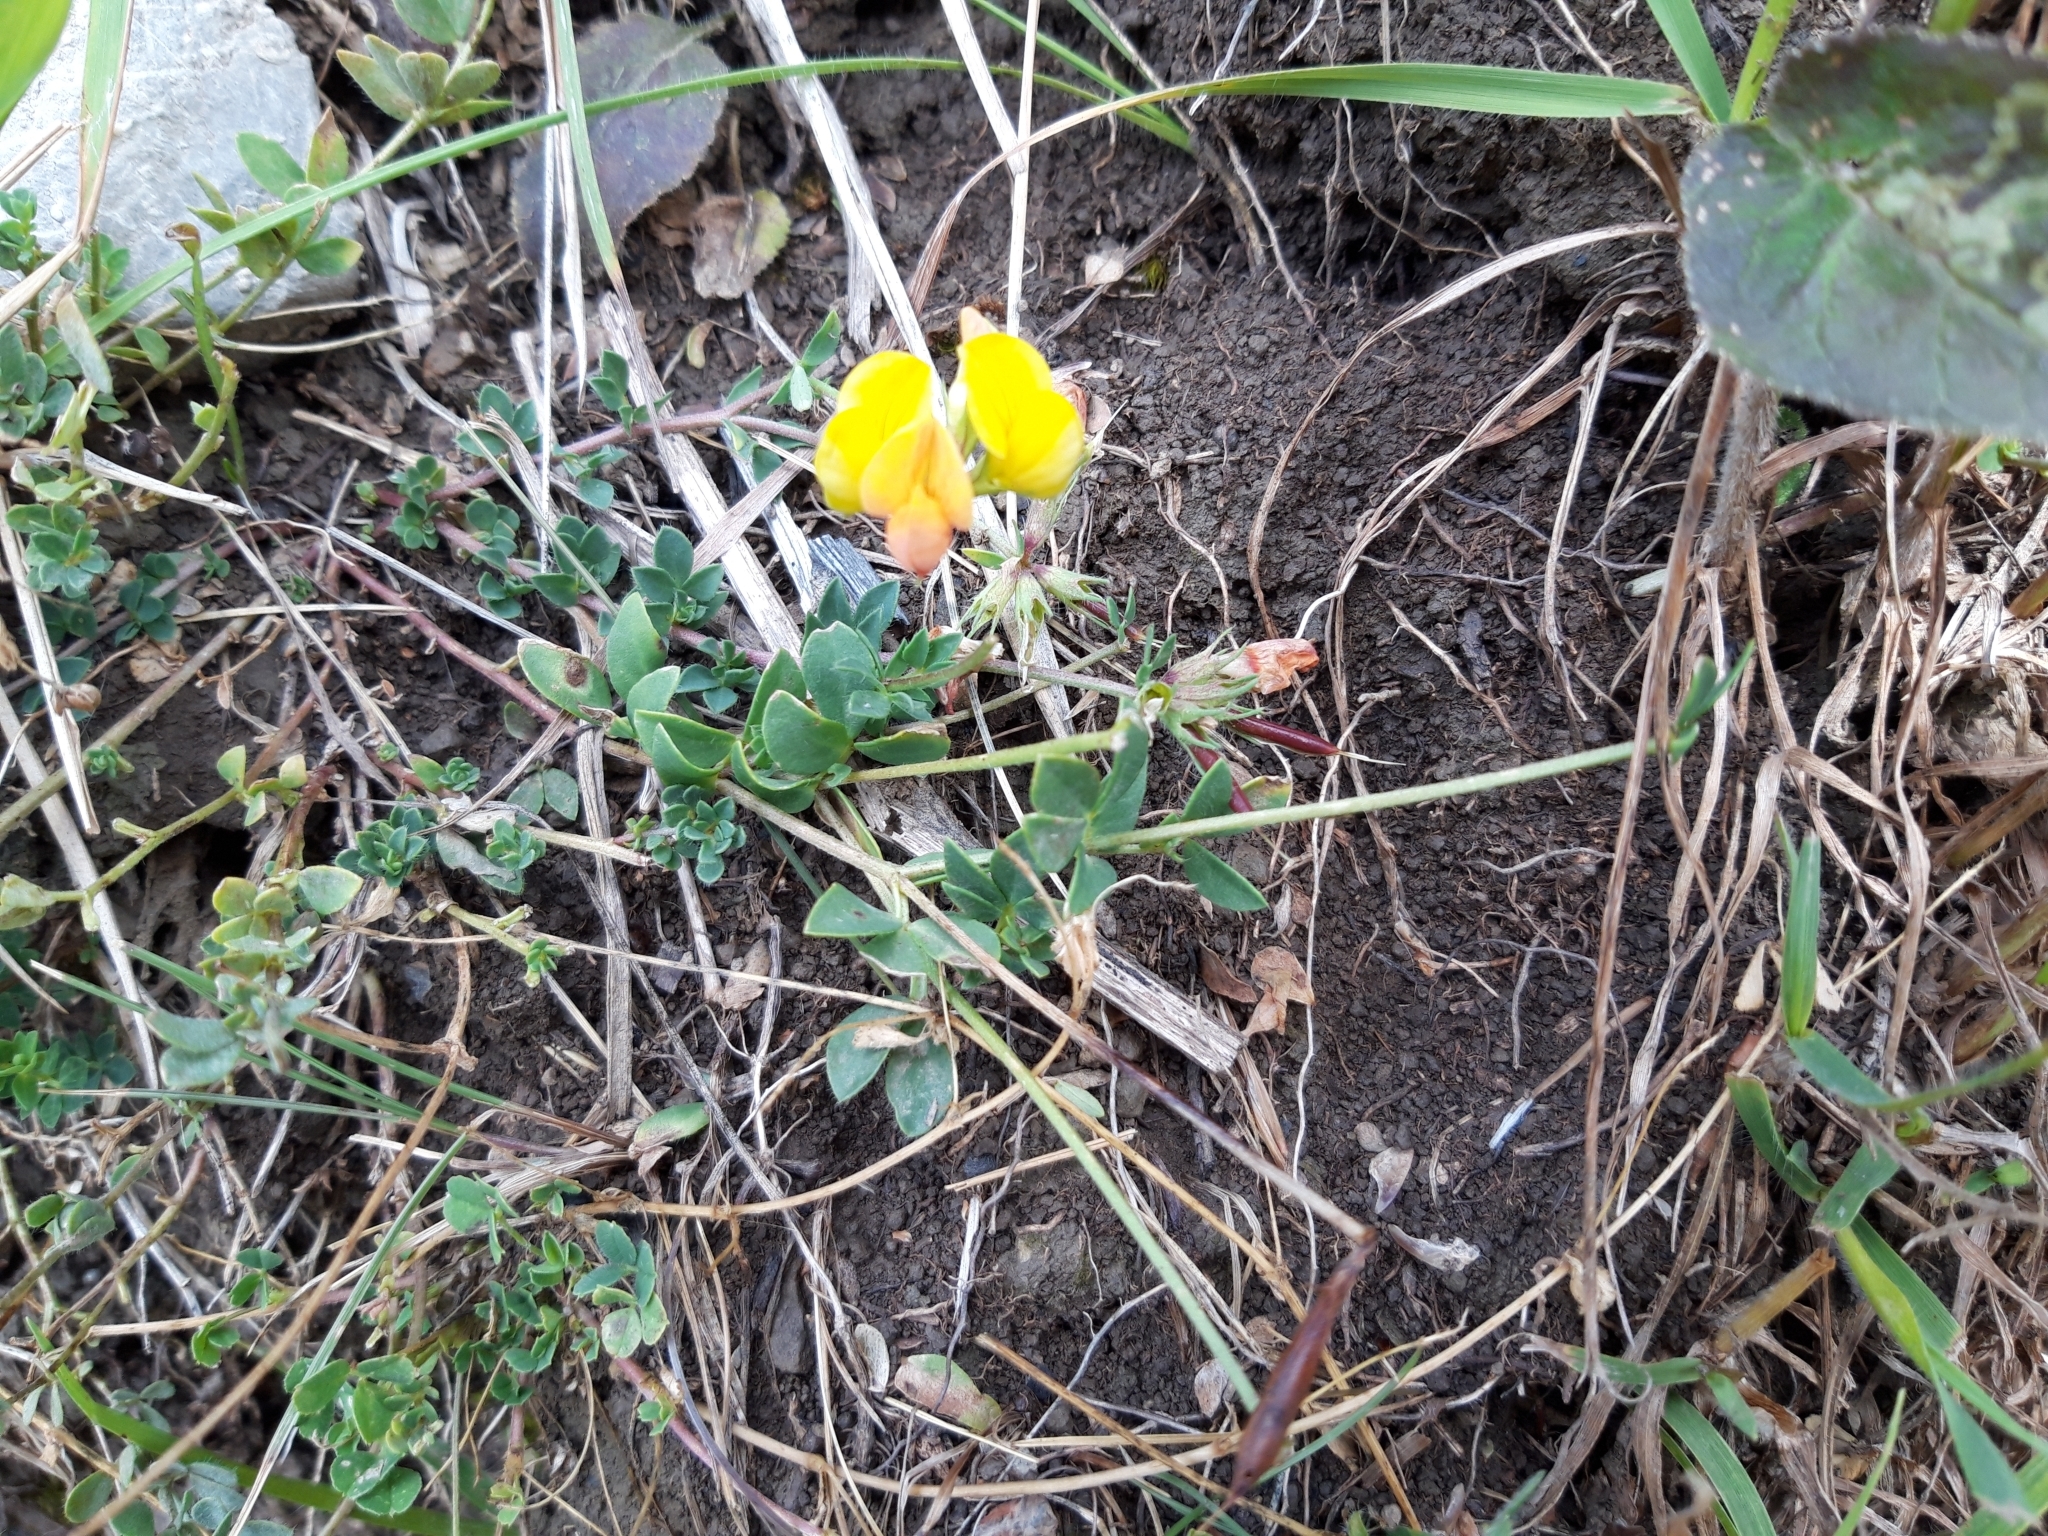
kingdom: Plantae
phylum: Tracheophyta
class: Magnoliopsida
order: Fabales
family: Fabaceae
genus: Lotus
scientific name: Lotus corniculatus
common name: Common bird's-foot-trefoil
